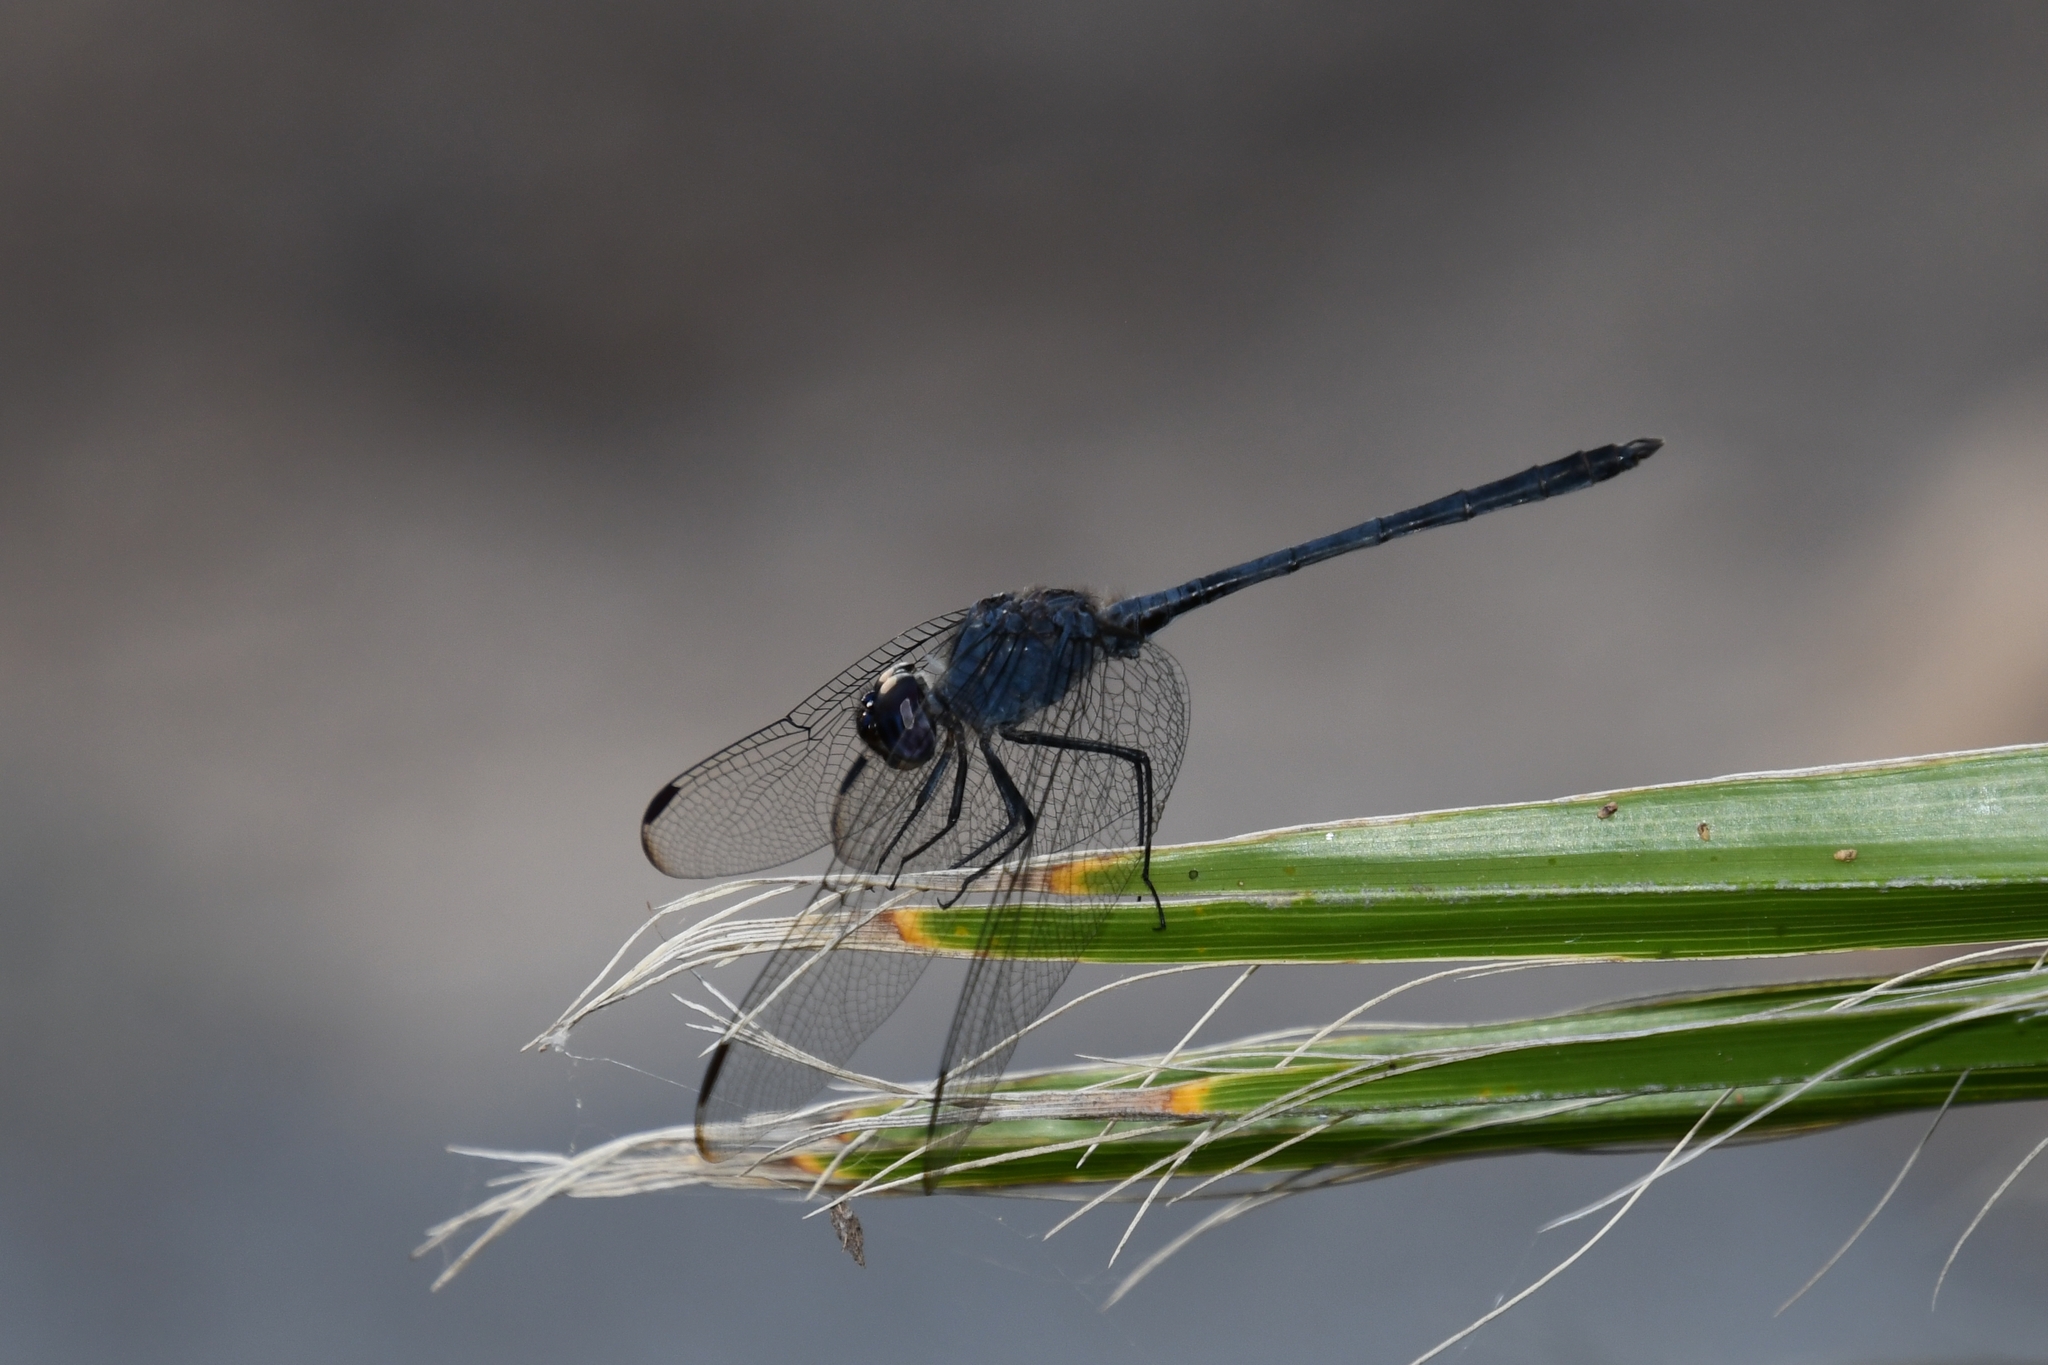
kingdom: Animalia
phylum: Arthropoda
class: Insecta
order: Odonata
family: Libellulidae
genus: Dythemis
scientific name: Dythemis nigrescens
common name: Black setwing
